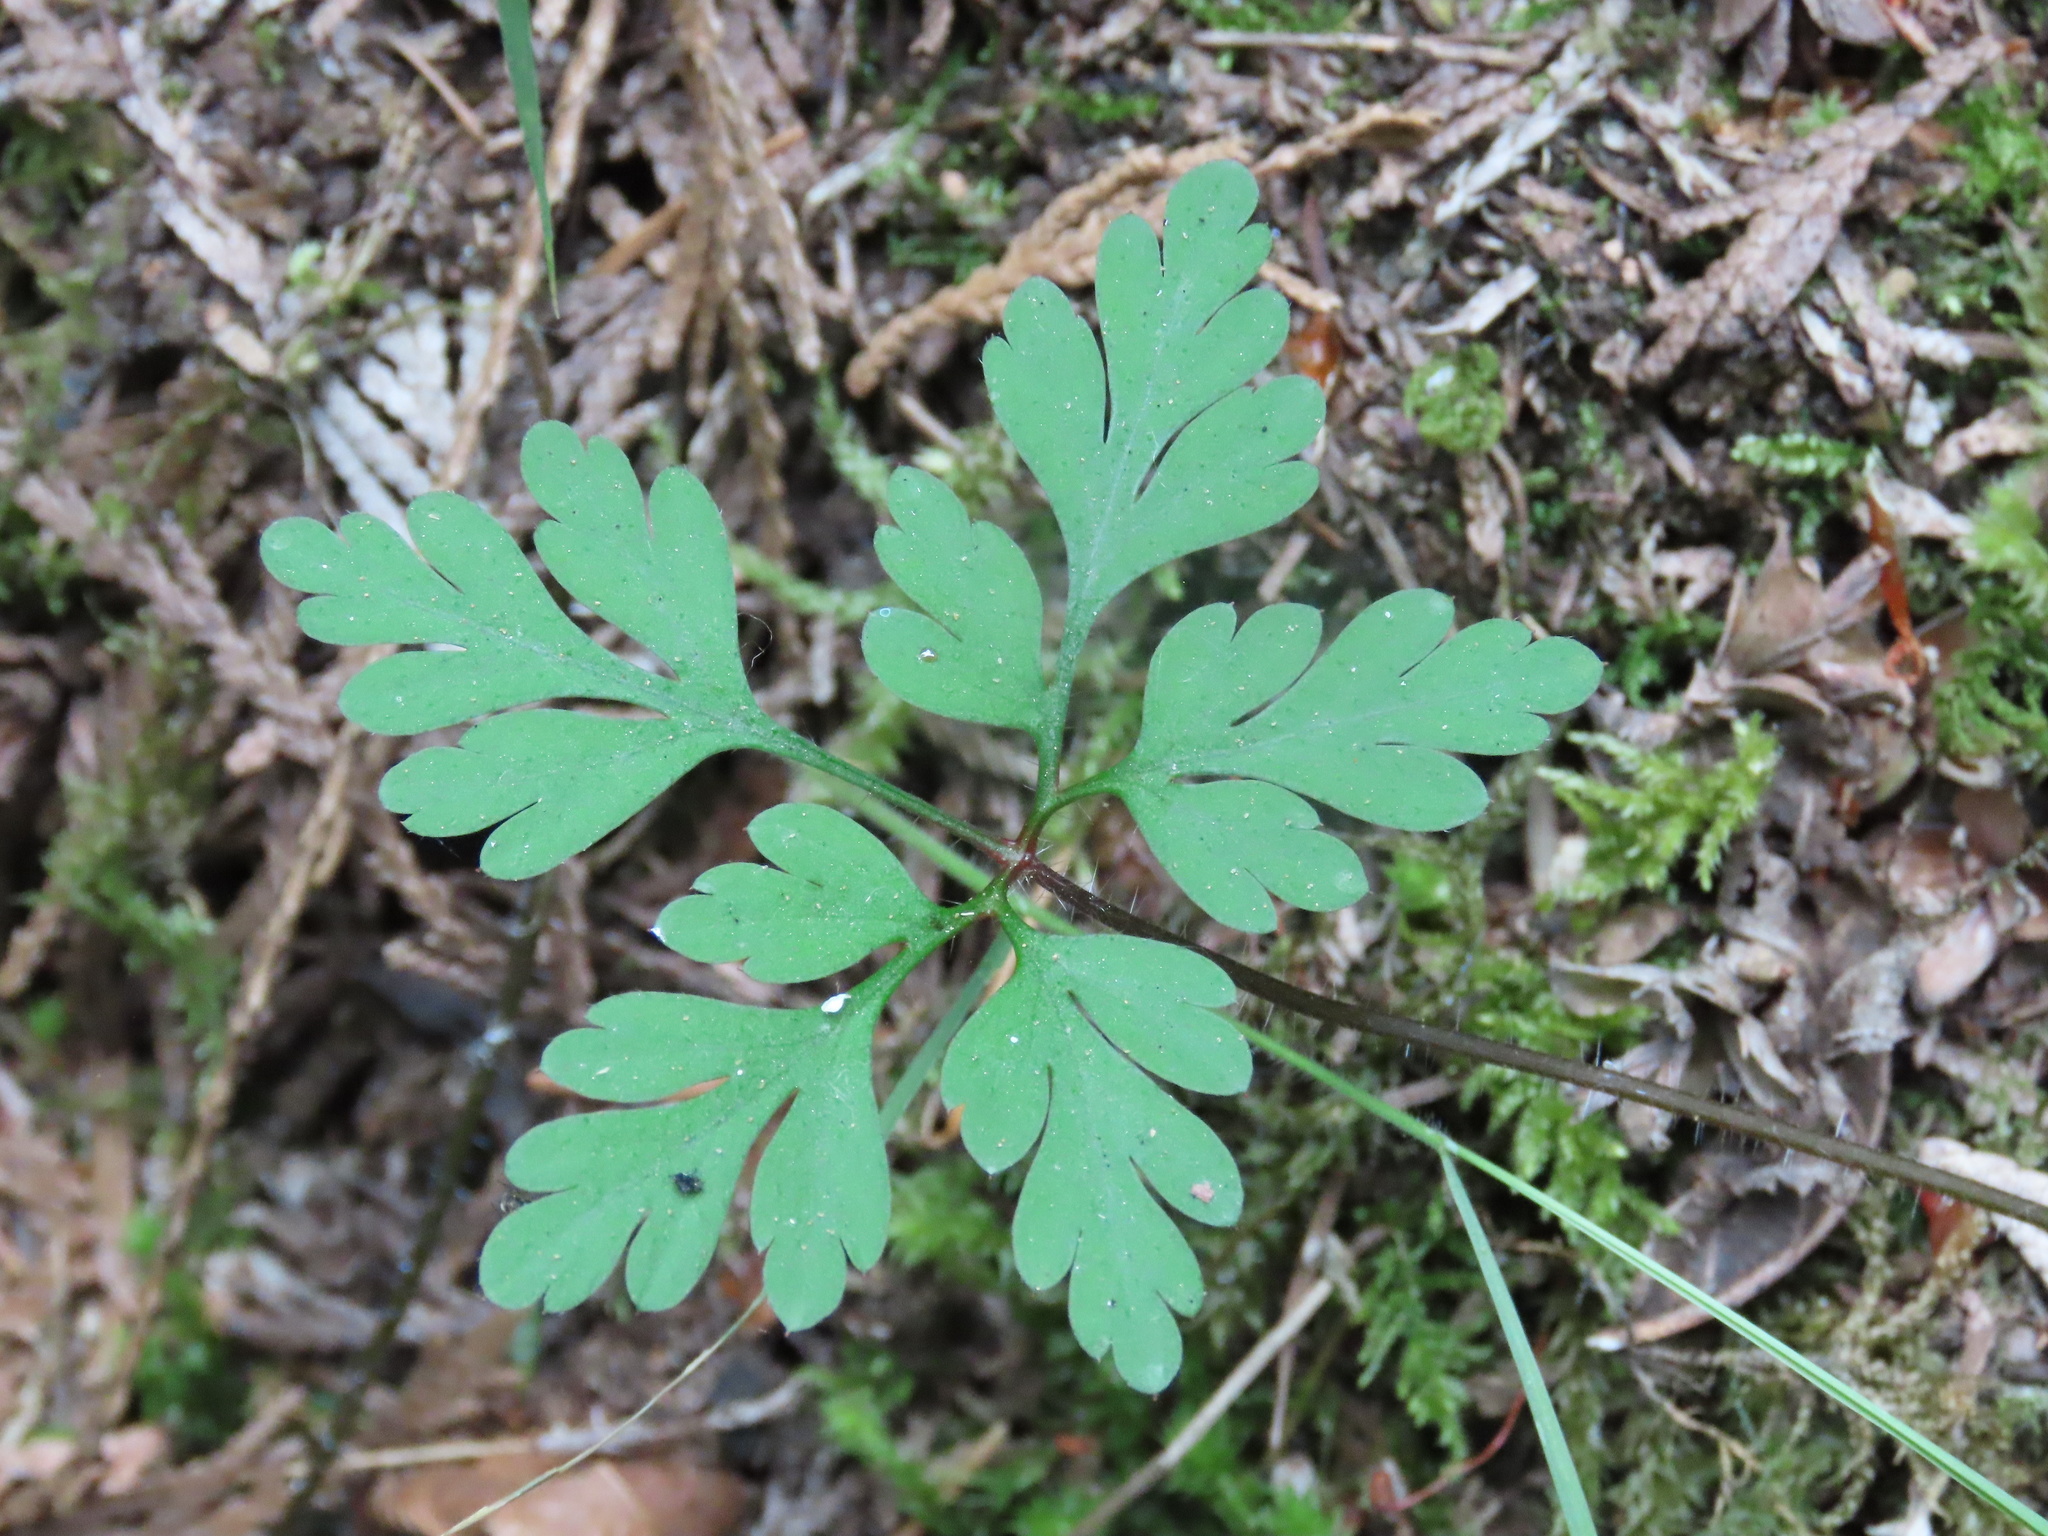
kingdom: Plantae
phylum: Tracheophyta
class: Magnoliopsida
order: Geraniales
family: Geraniaceae
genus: Geranium
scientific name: Geranium robertianum
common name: Herb-robert
